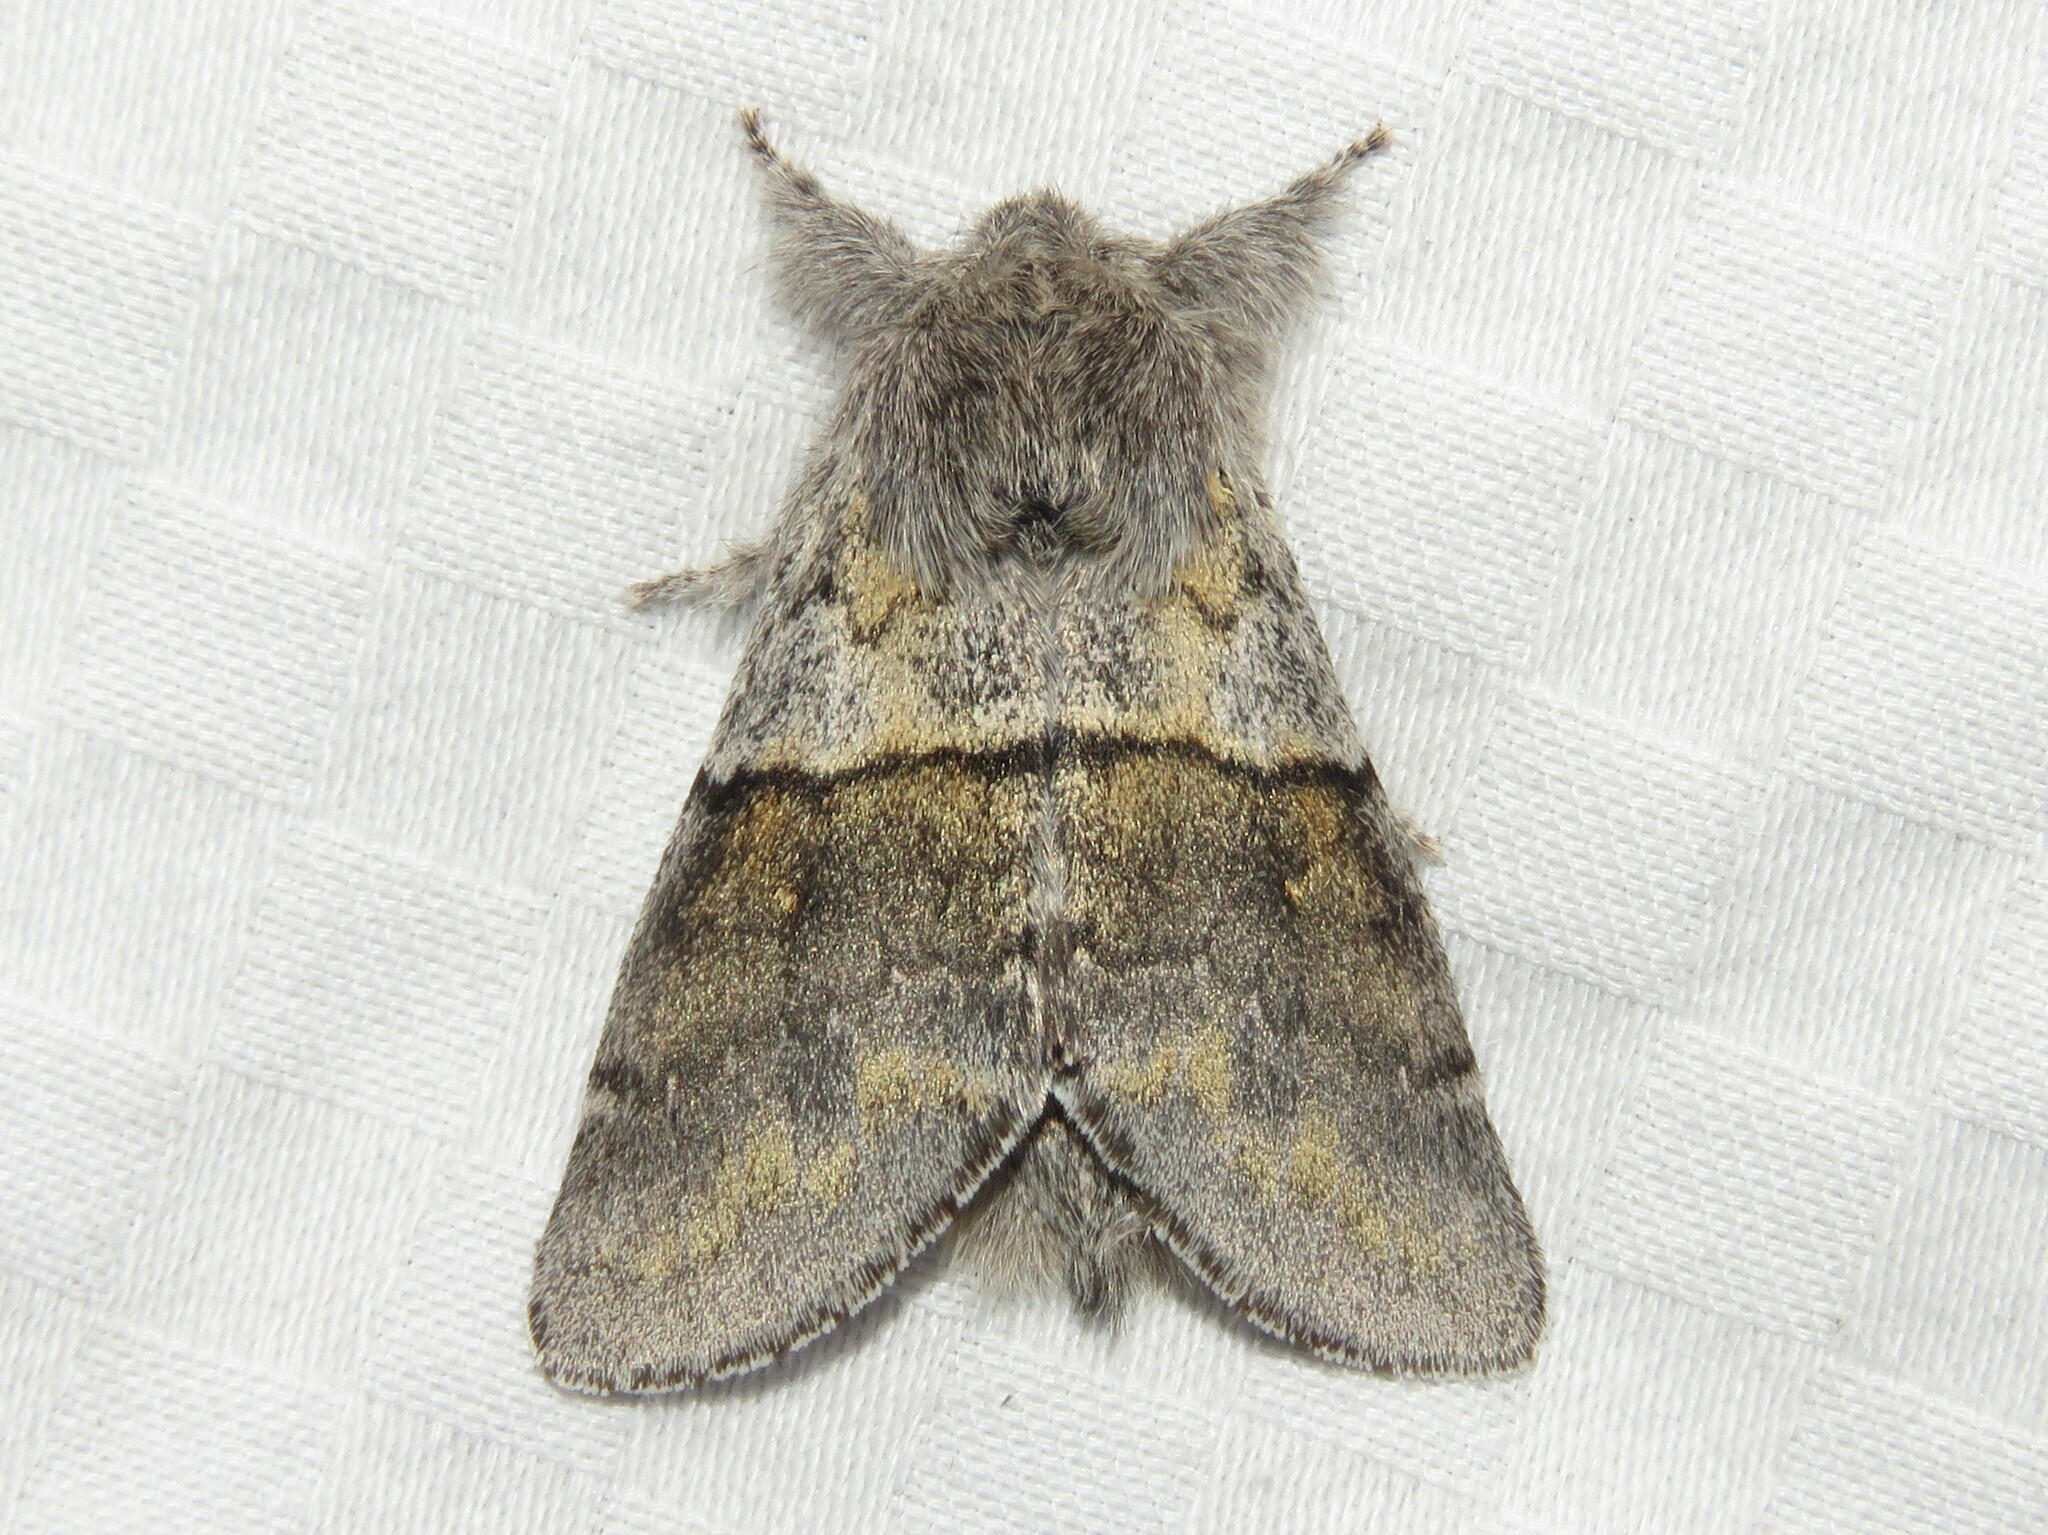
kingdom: Animalia
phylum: Arthropoda
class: Insecta
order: Lepidoptera
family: Notodontidae
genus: Gluphisia
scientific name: Gluphisia septentrionis
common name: Common gluphisia
